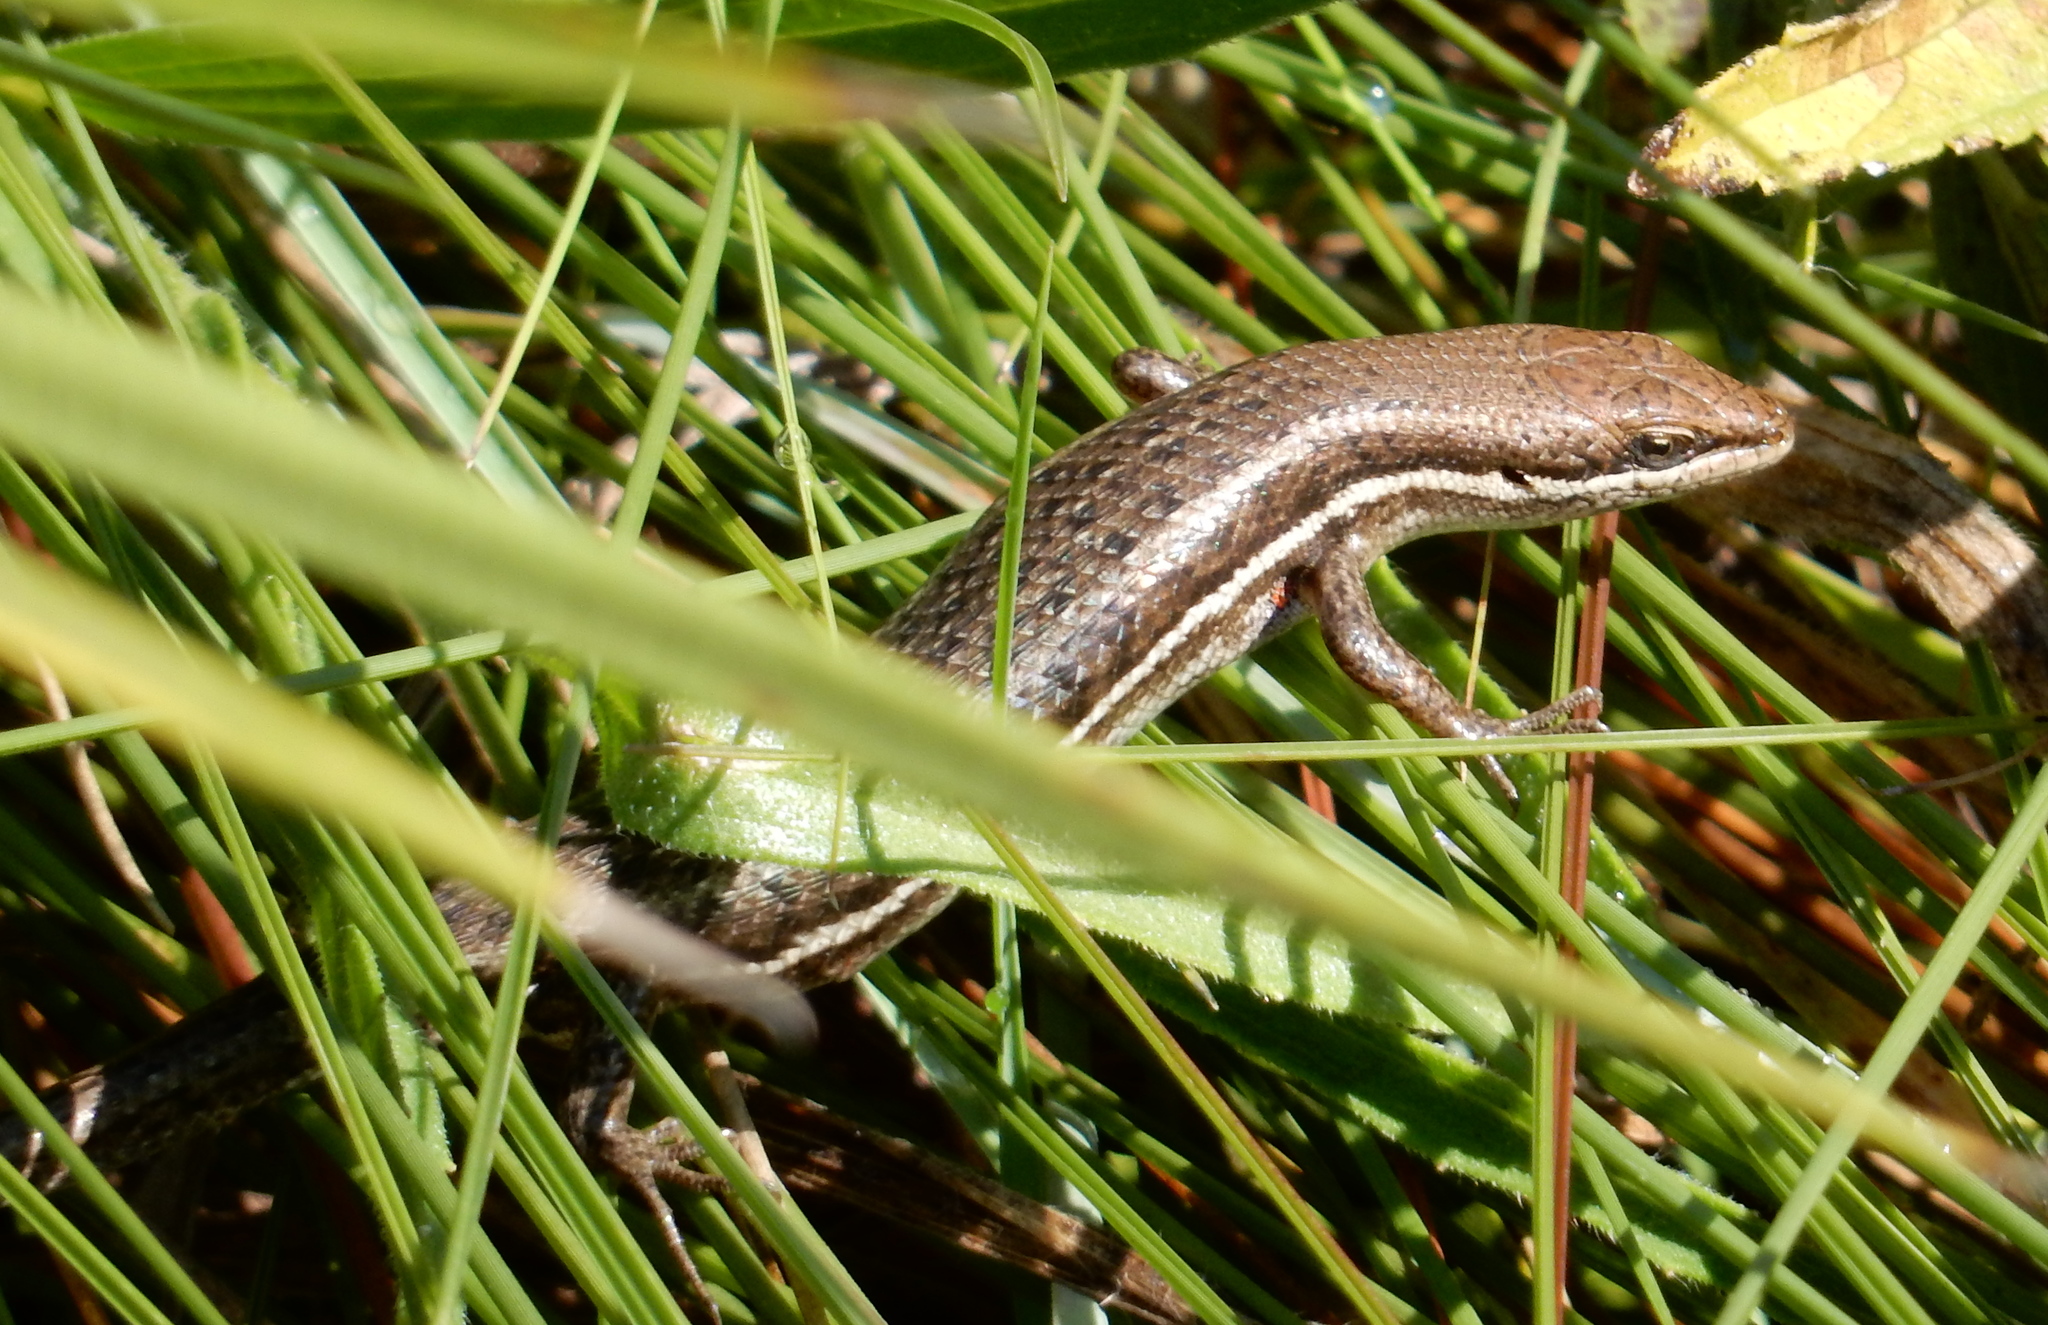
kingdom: Animalia
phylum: Chordata
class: Squamata
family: Scincidae
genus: Trachylepis
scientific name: Trachylepis varia
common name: Eastern variable skink
